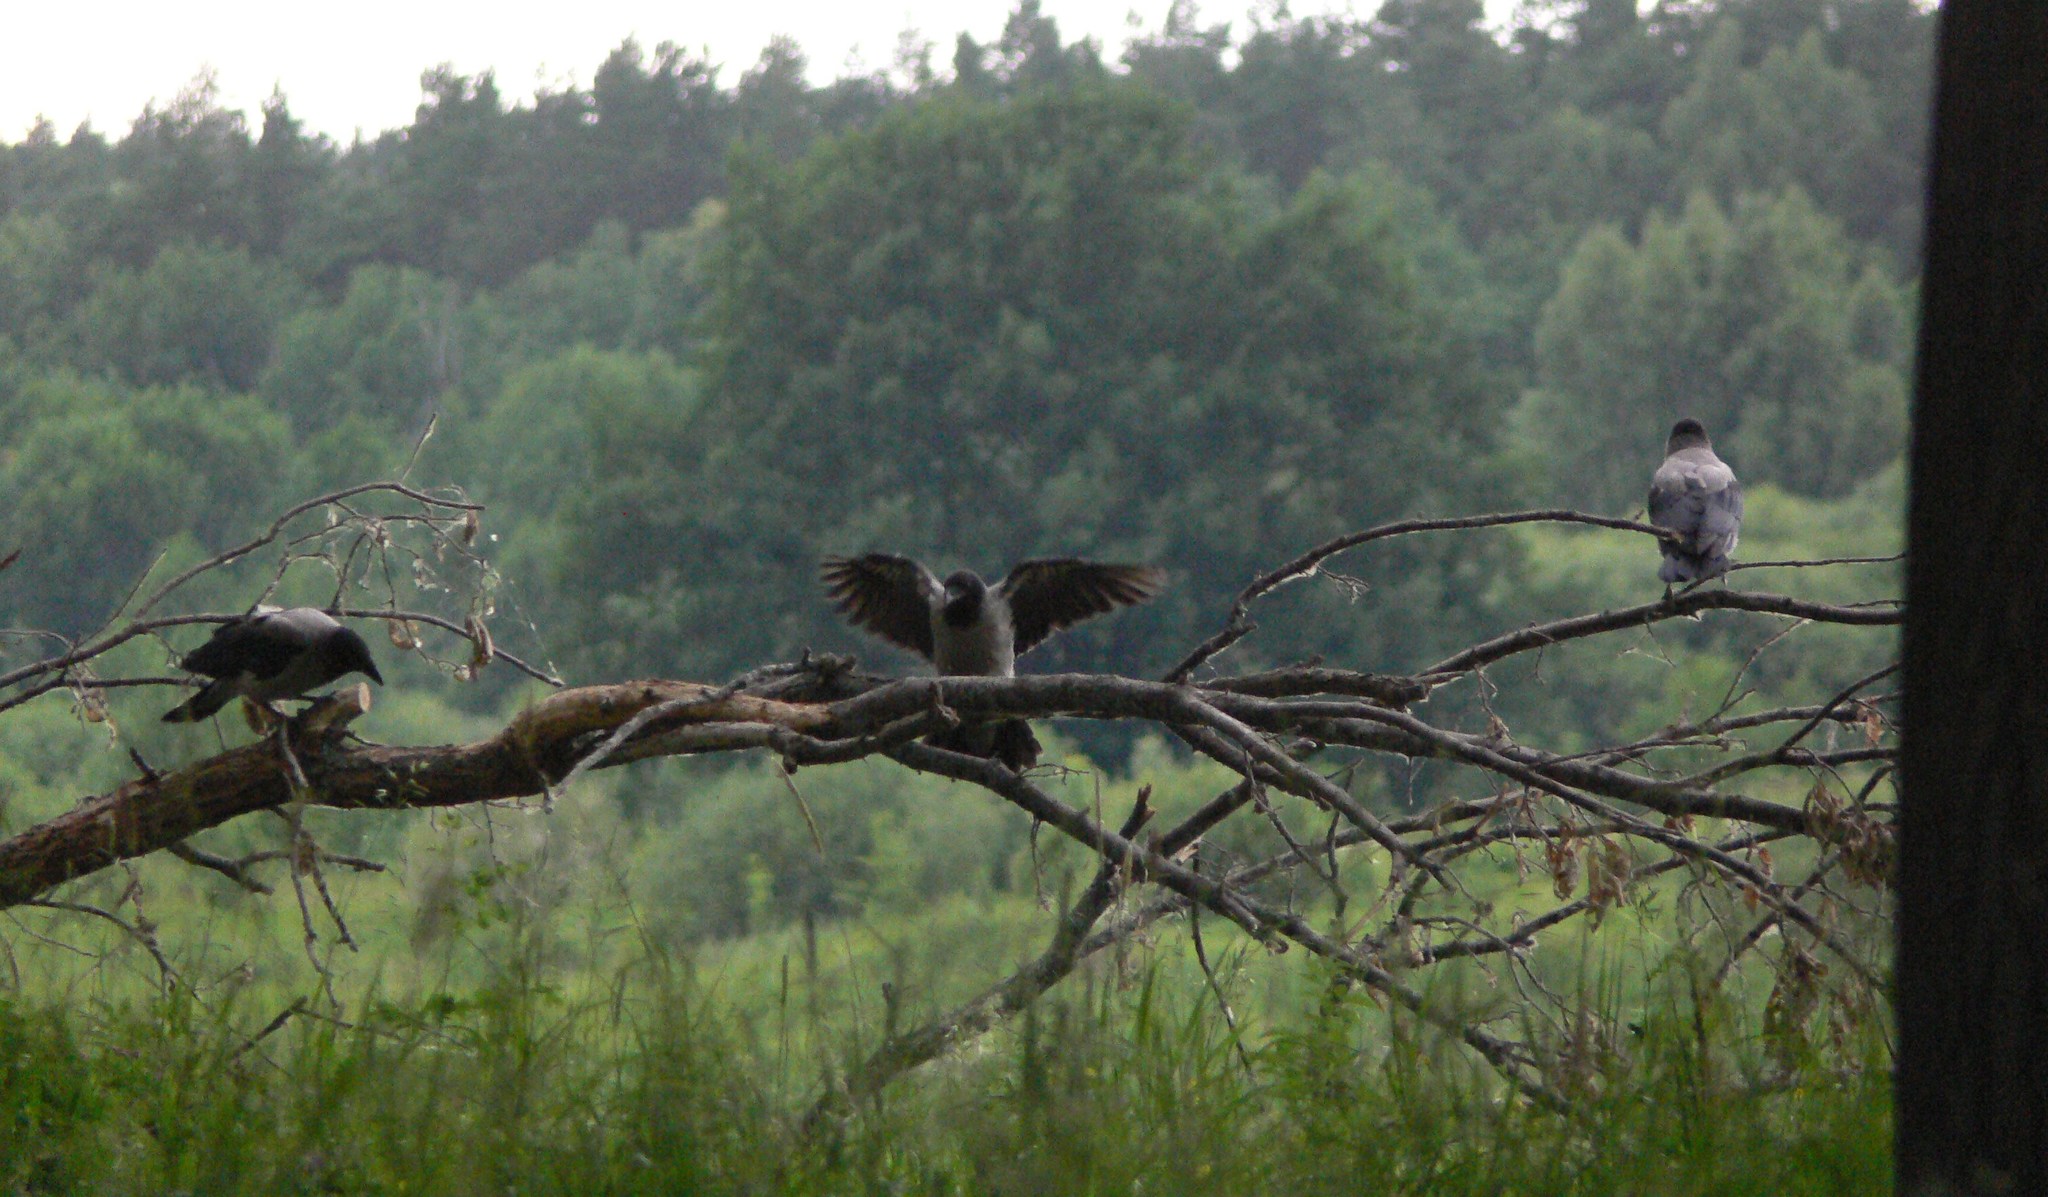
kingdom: Animalia
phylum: Chordata
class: Aves
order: Passeriformes
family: Corvidae
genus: Corvus
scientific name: Corvus cornix
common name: Hooded crow
